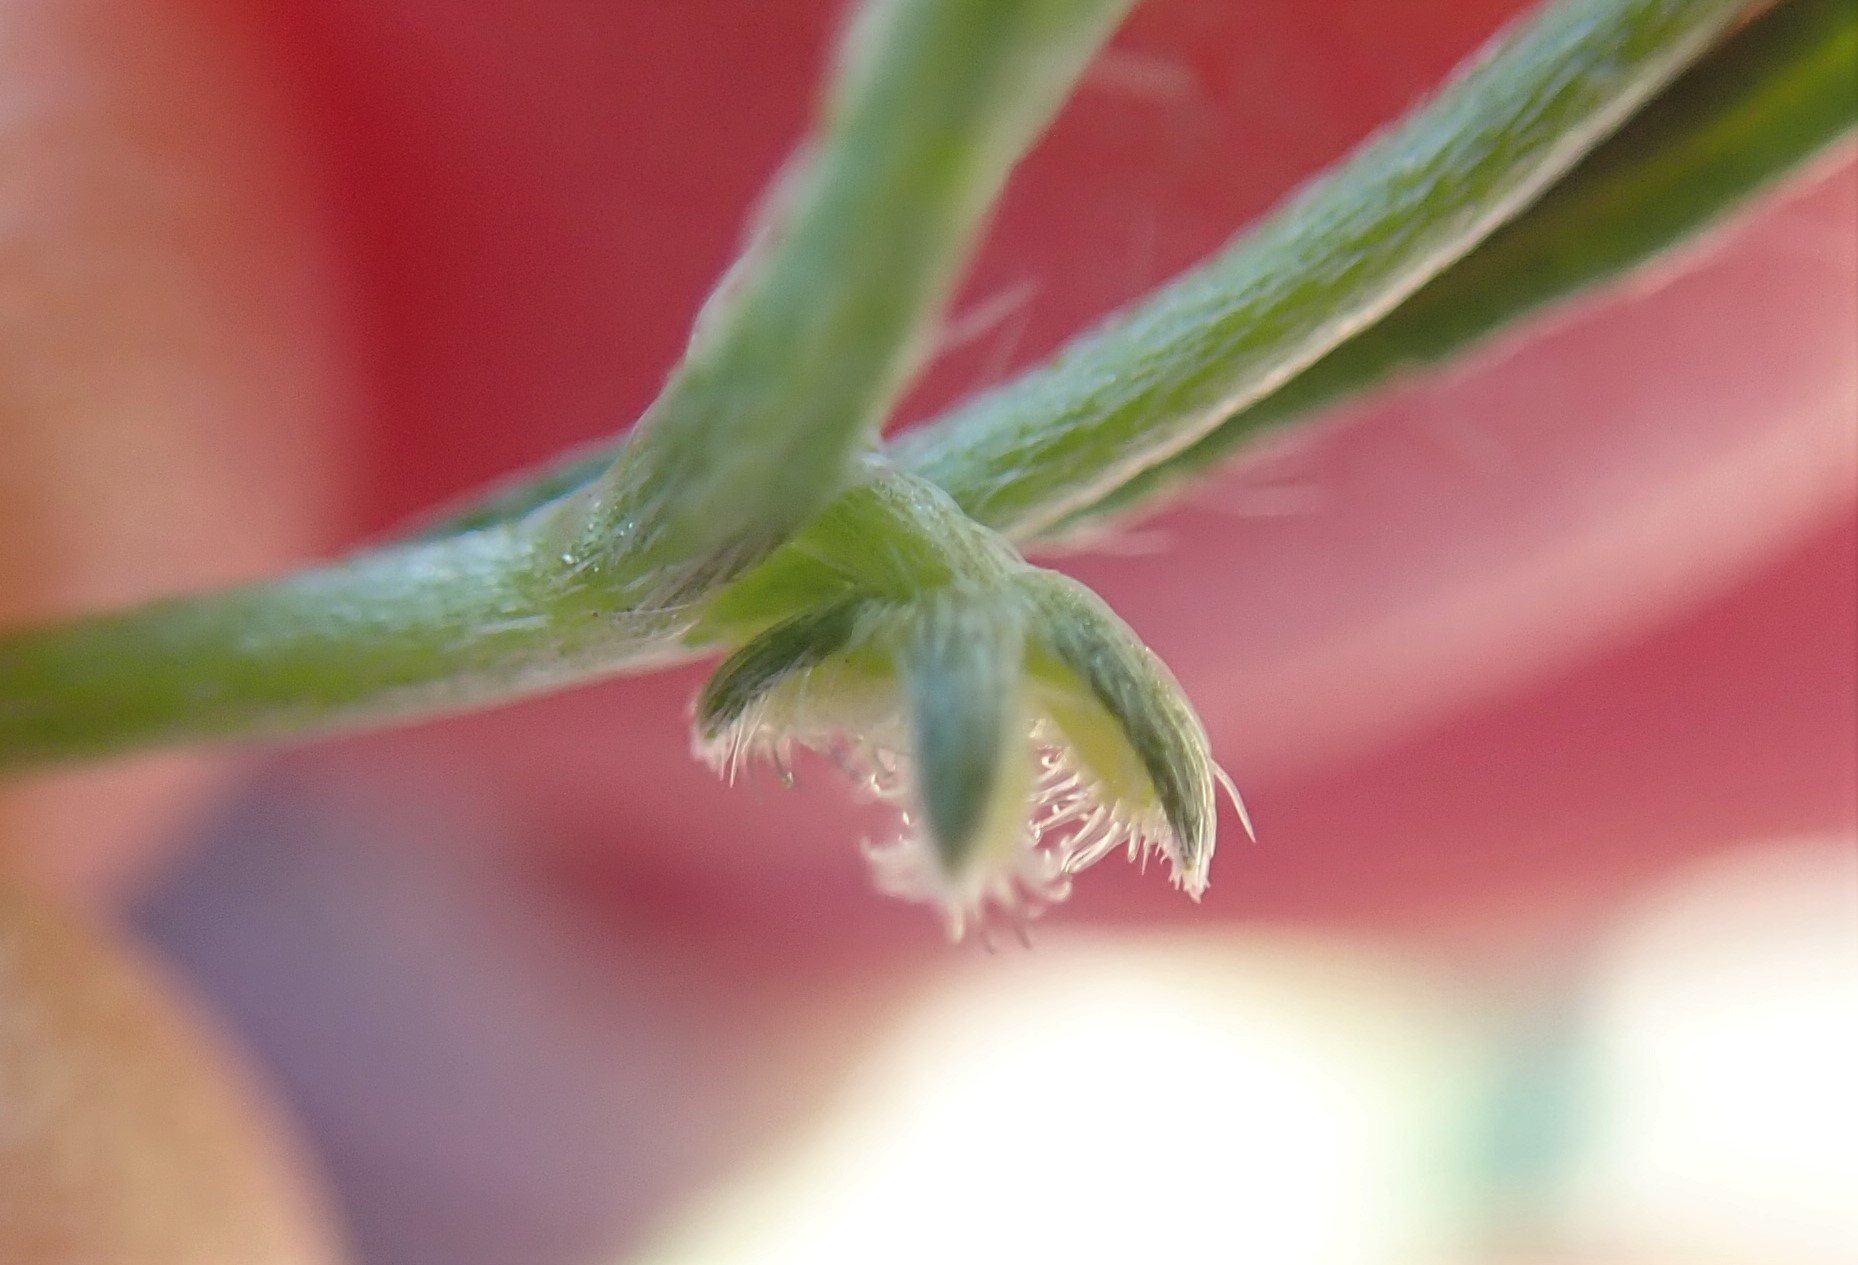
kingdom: Plantae
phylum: Tracheophyta
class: Magnoliopsida
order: Boraginales
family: Boraginaceae
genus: Pectocarya
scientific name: Pectocarya linearis
